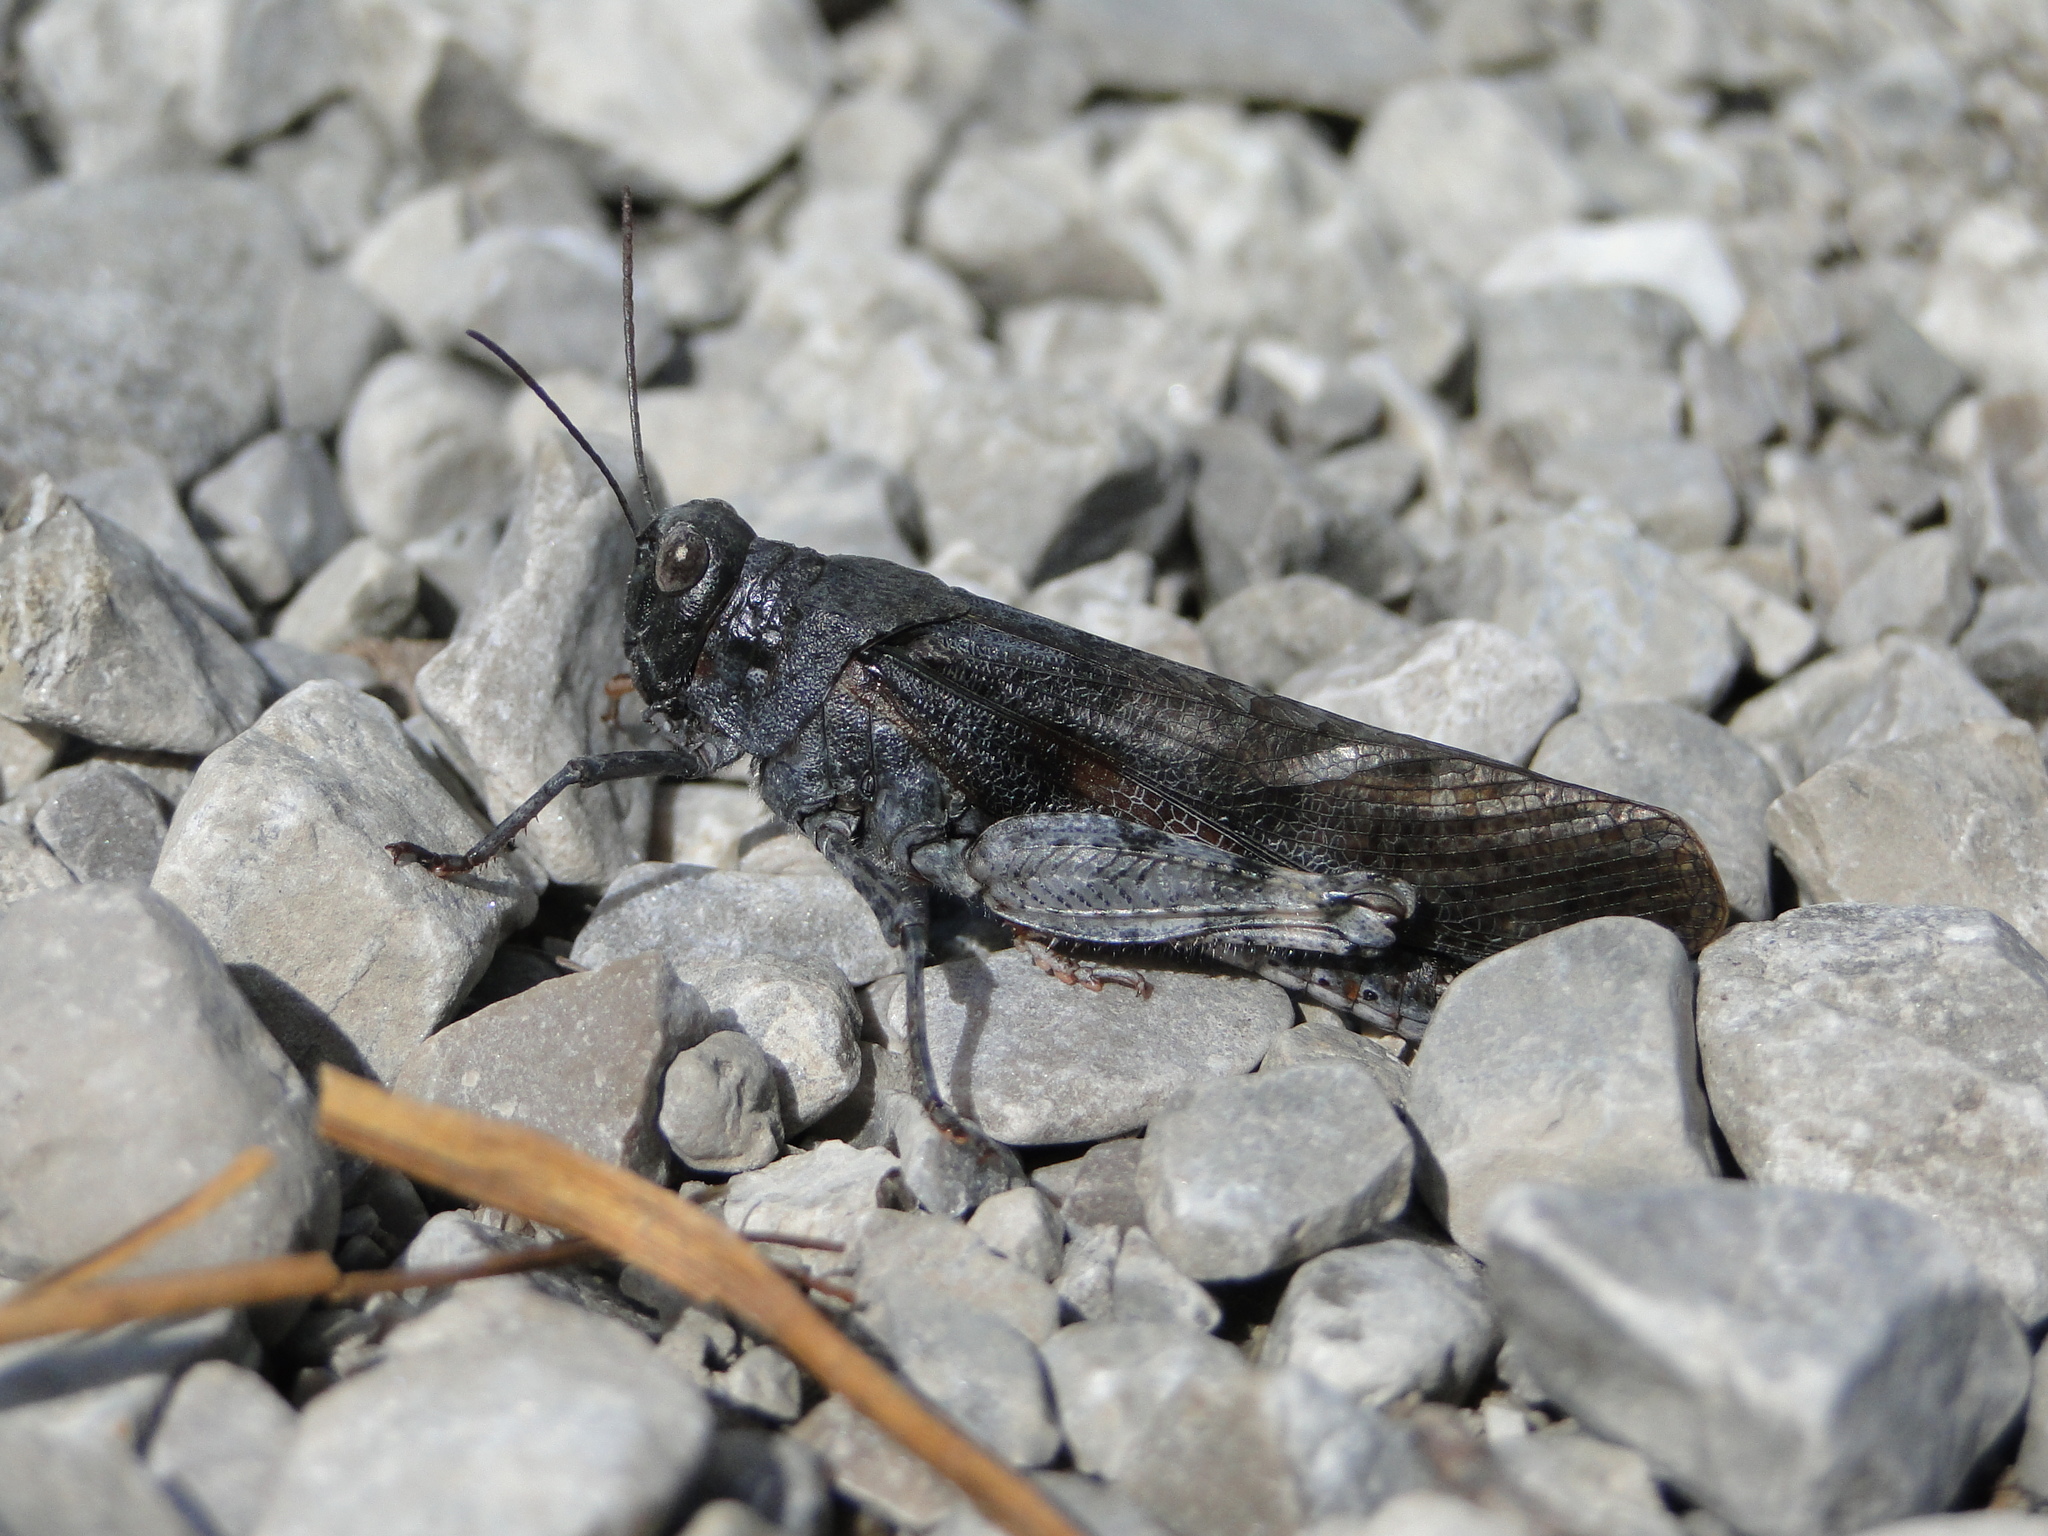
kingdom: Animalia
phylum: Arthropoda
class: Insecta
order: Orthoptera
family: Acrididae
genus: Bryodemella
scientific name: Bryodemella tuberculata
